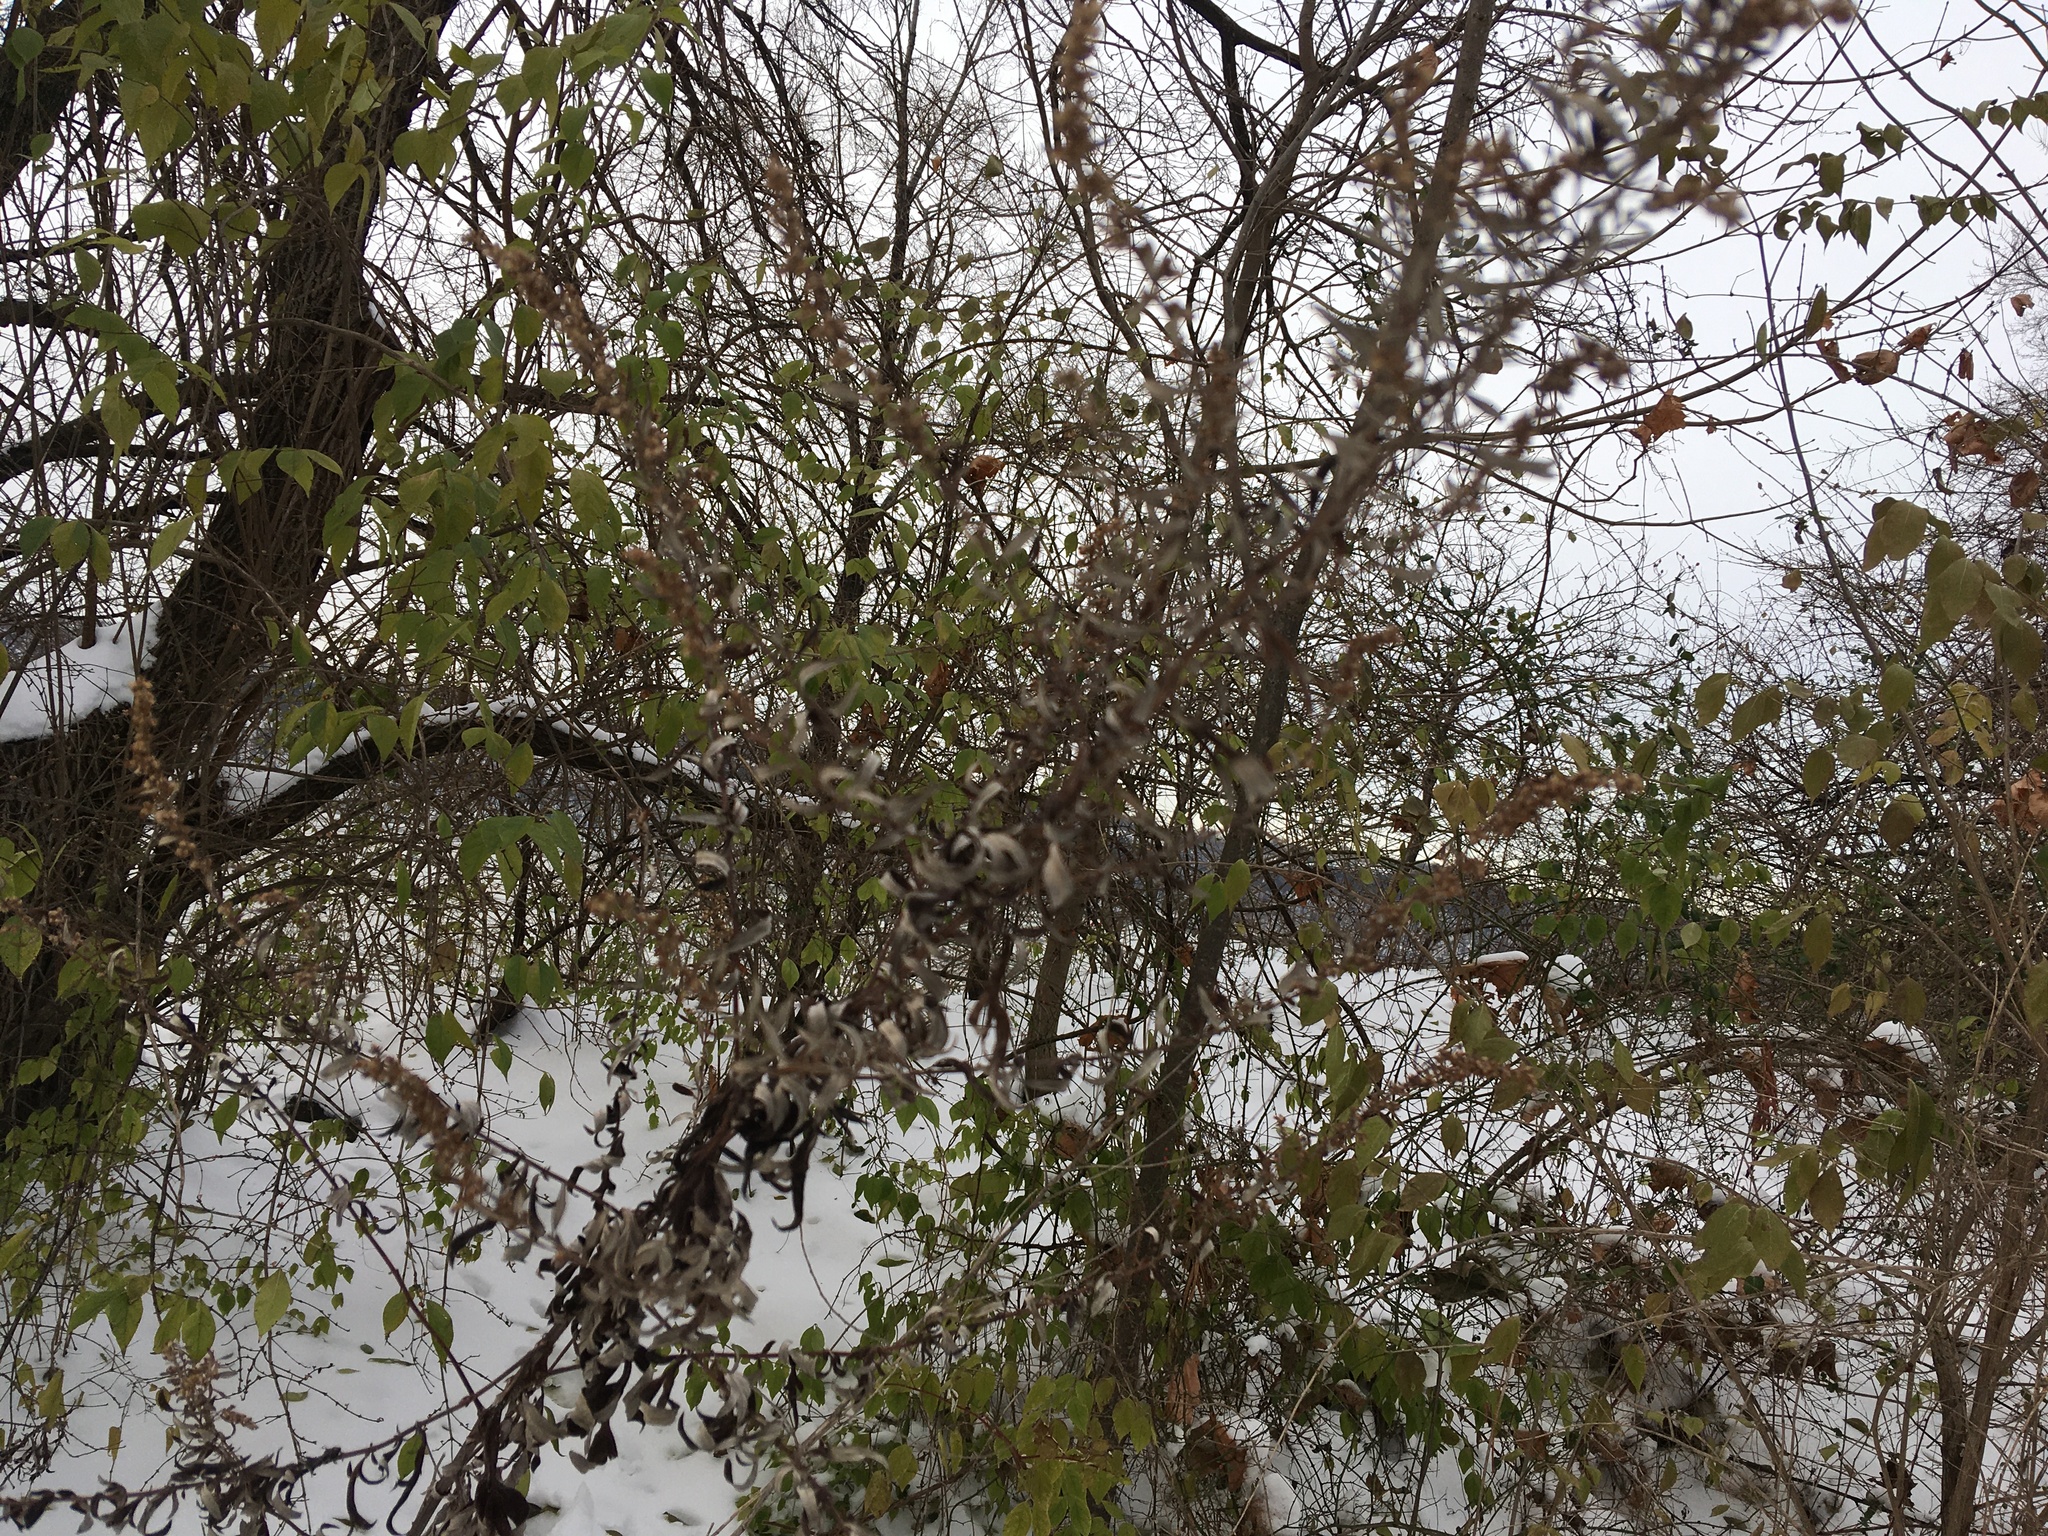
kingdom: Plantae
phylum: Tracheophyta
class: Magnoliopsida
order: Asterales
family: Asteraceae
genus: Artemisia
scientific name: Artemisia vulgaris
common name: Mugwort
